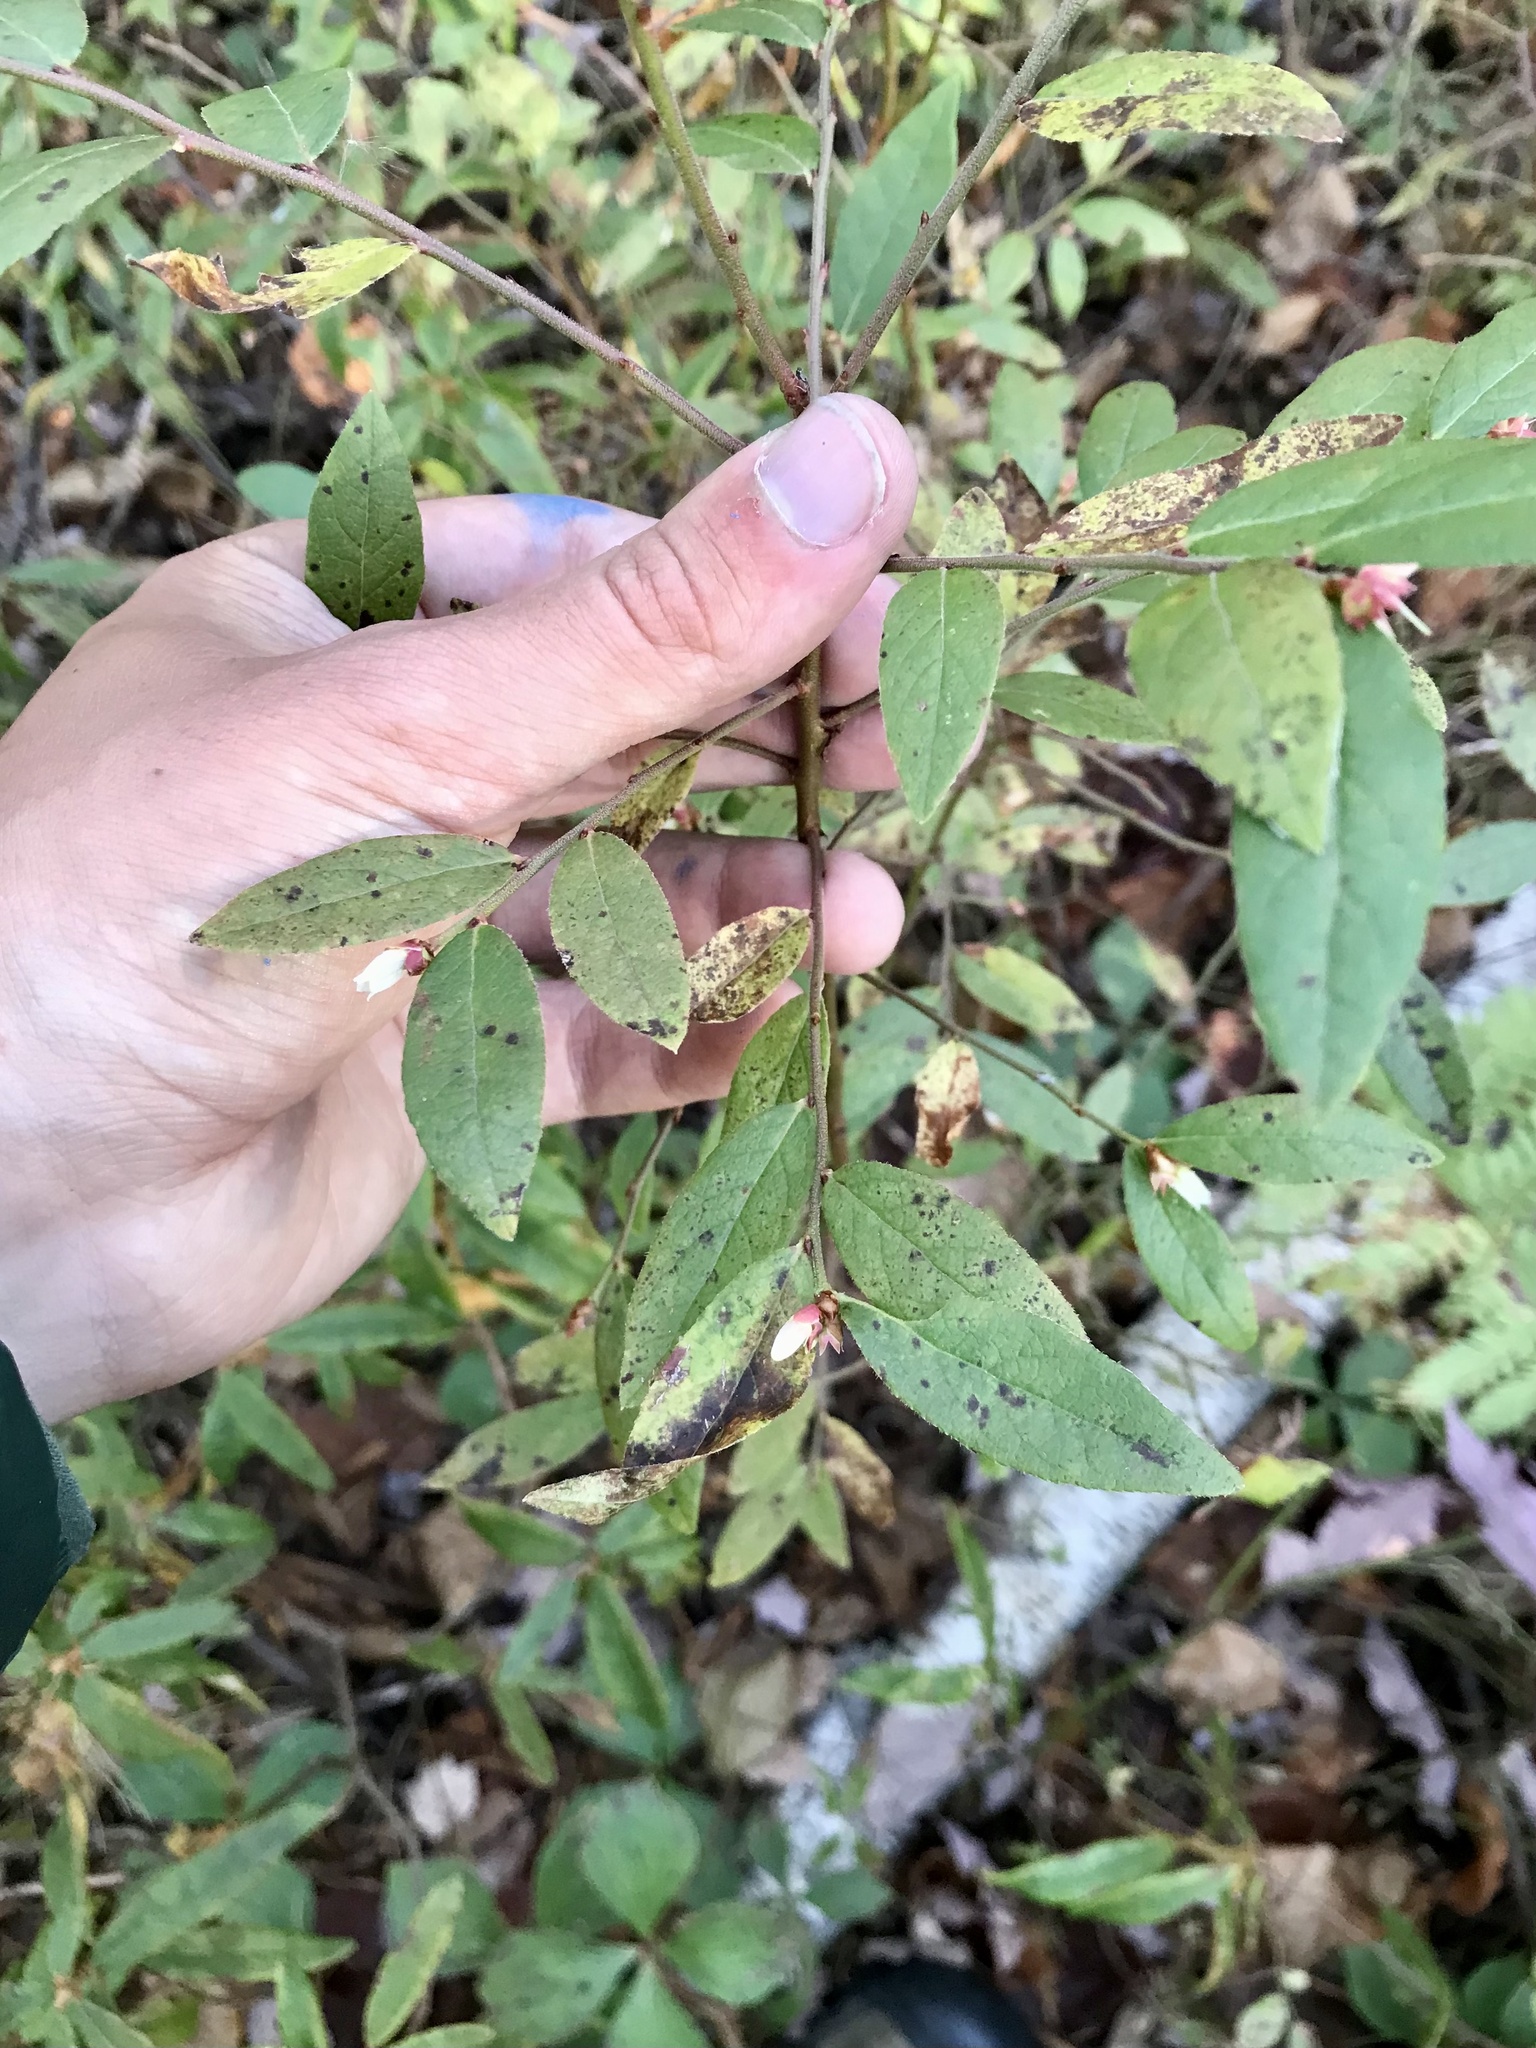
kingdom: Plantae
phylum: Tracheophyta
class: Magnoliopsida
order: Ericales
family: Ericaceae
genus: Vaccinium
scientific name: Vaccinium angustifolium
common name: Early lowbush blueberry
